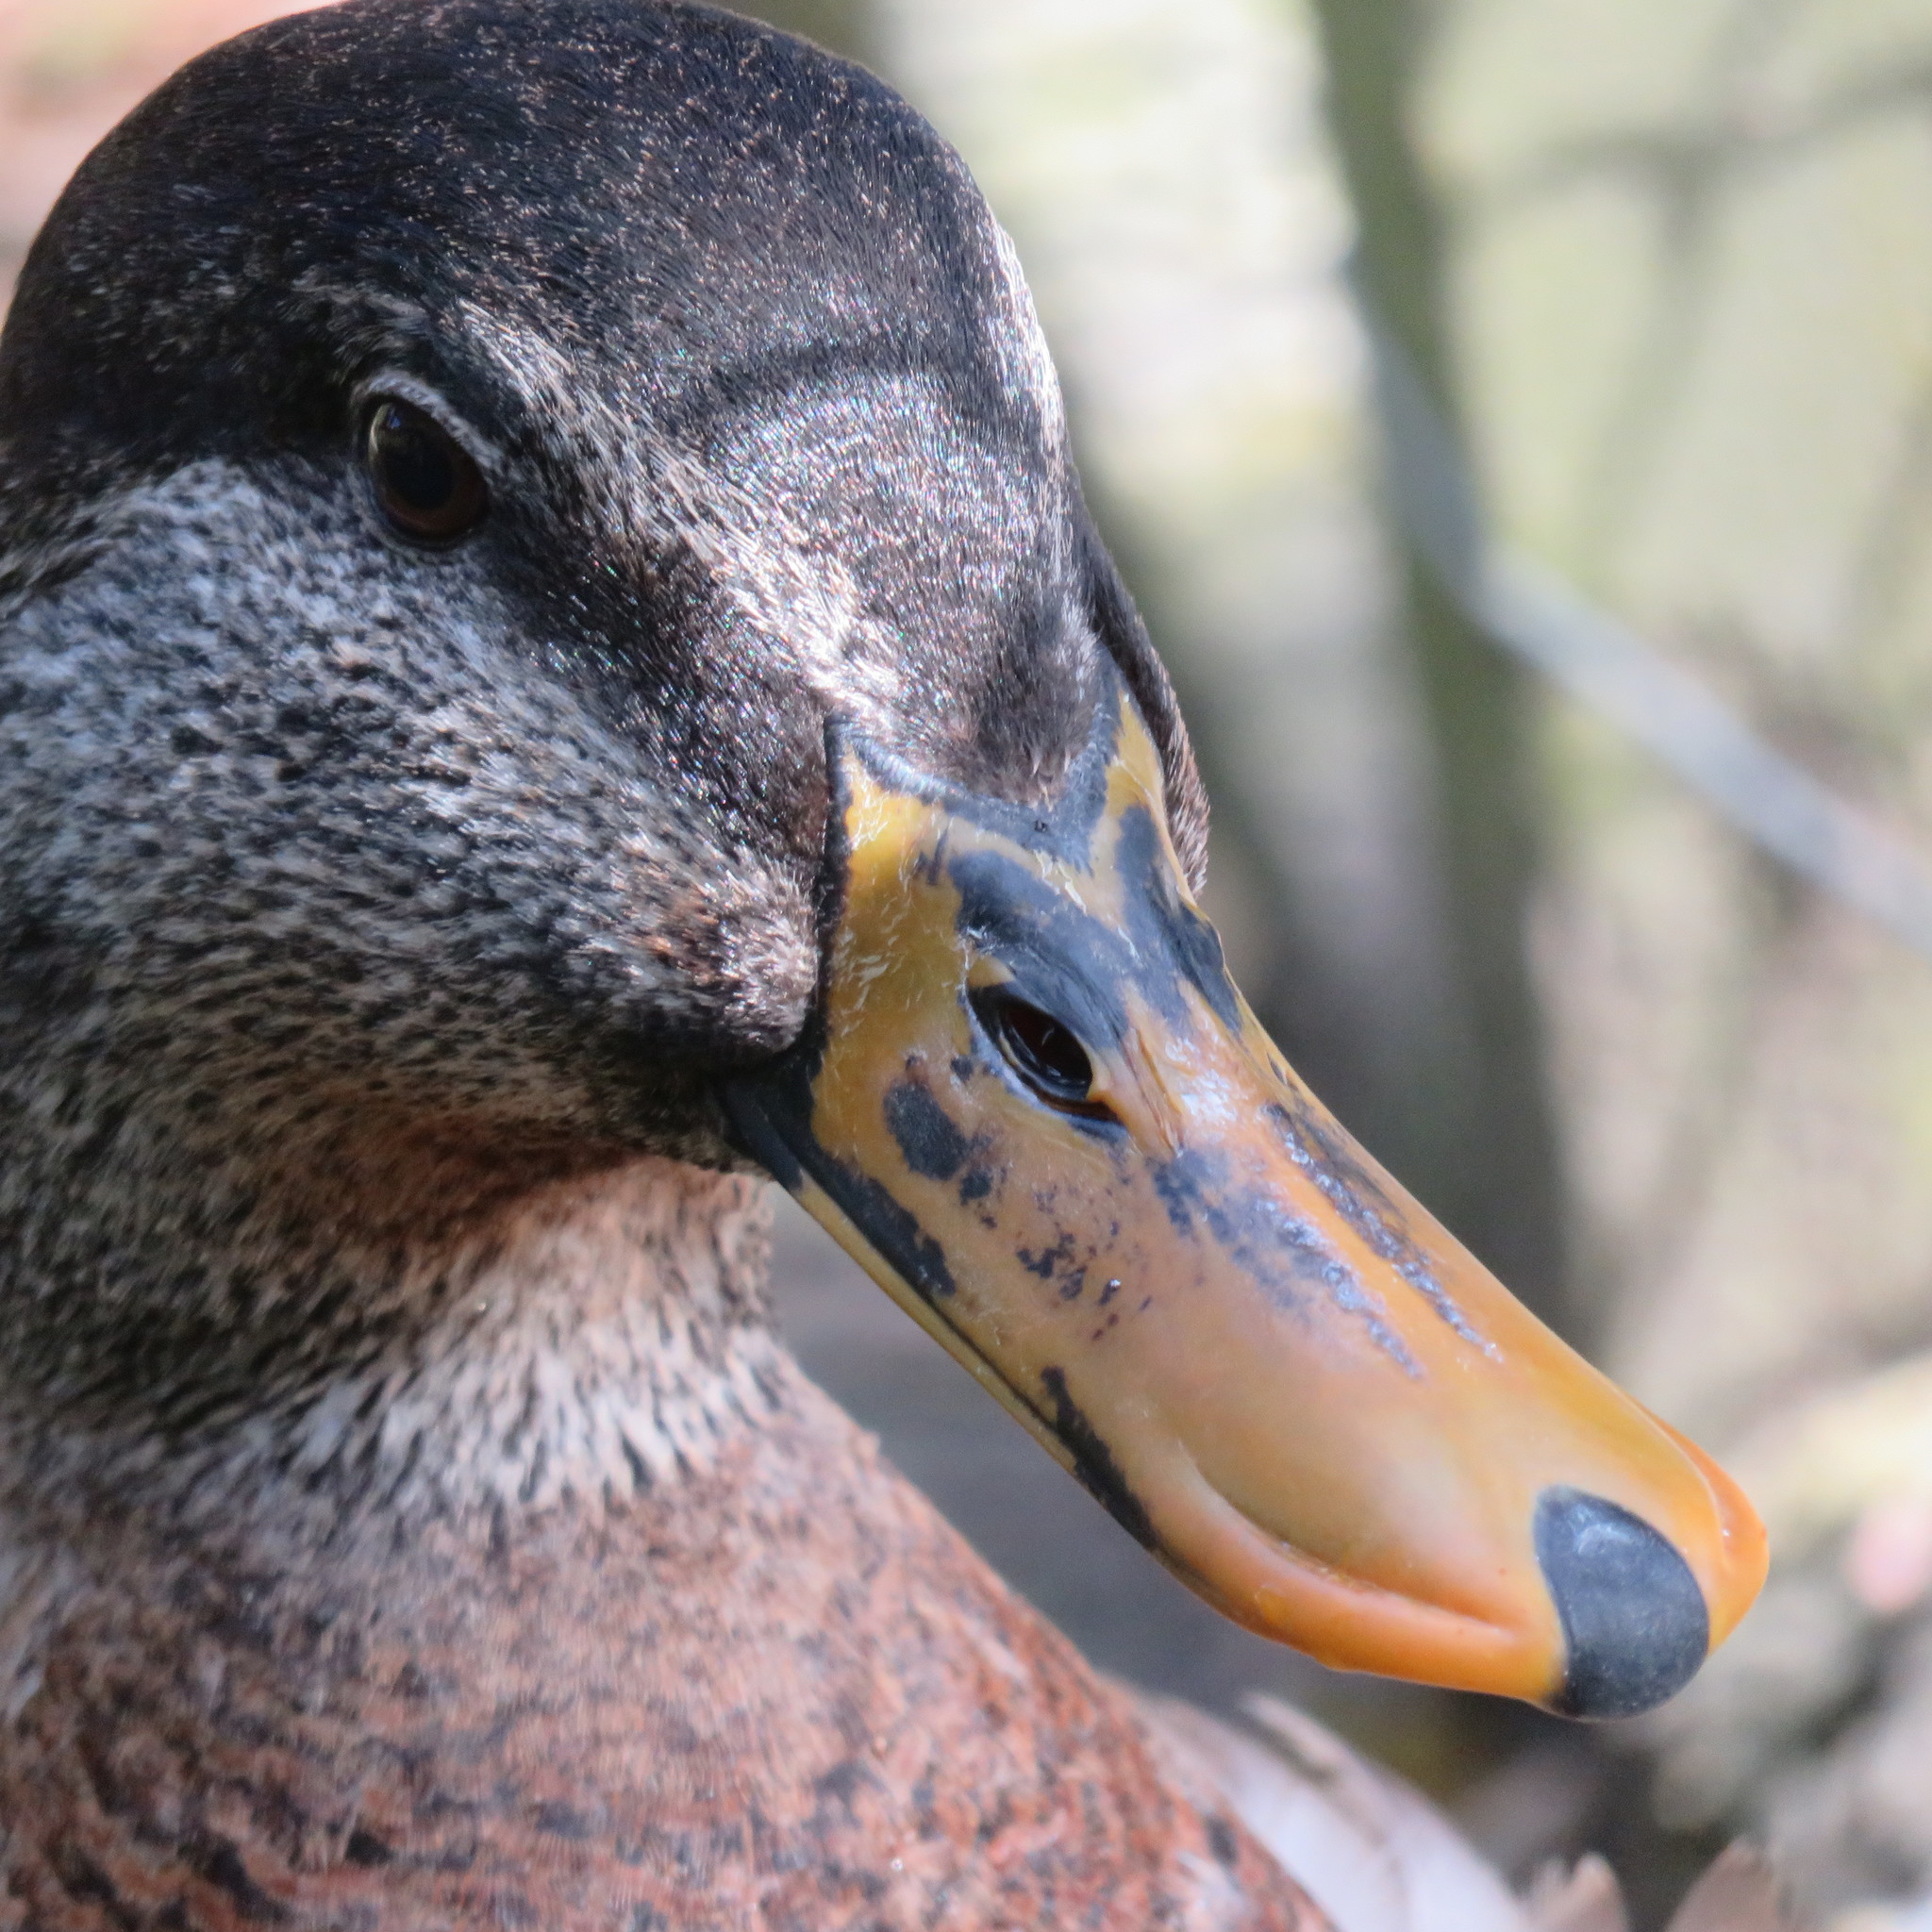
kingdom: Animalia
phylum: Chordata
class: Aves
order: Anseriformes
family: Anatidae
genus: Anas
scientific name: Anas
